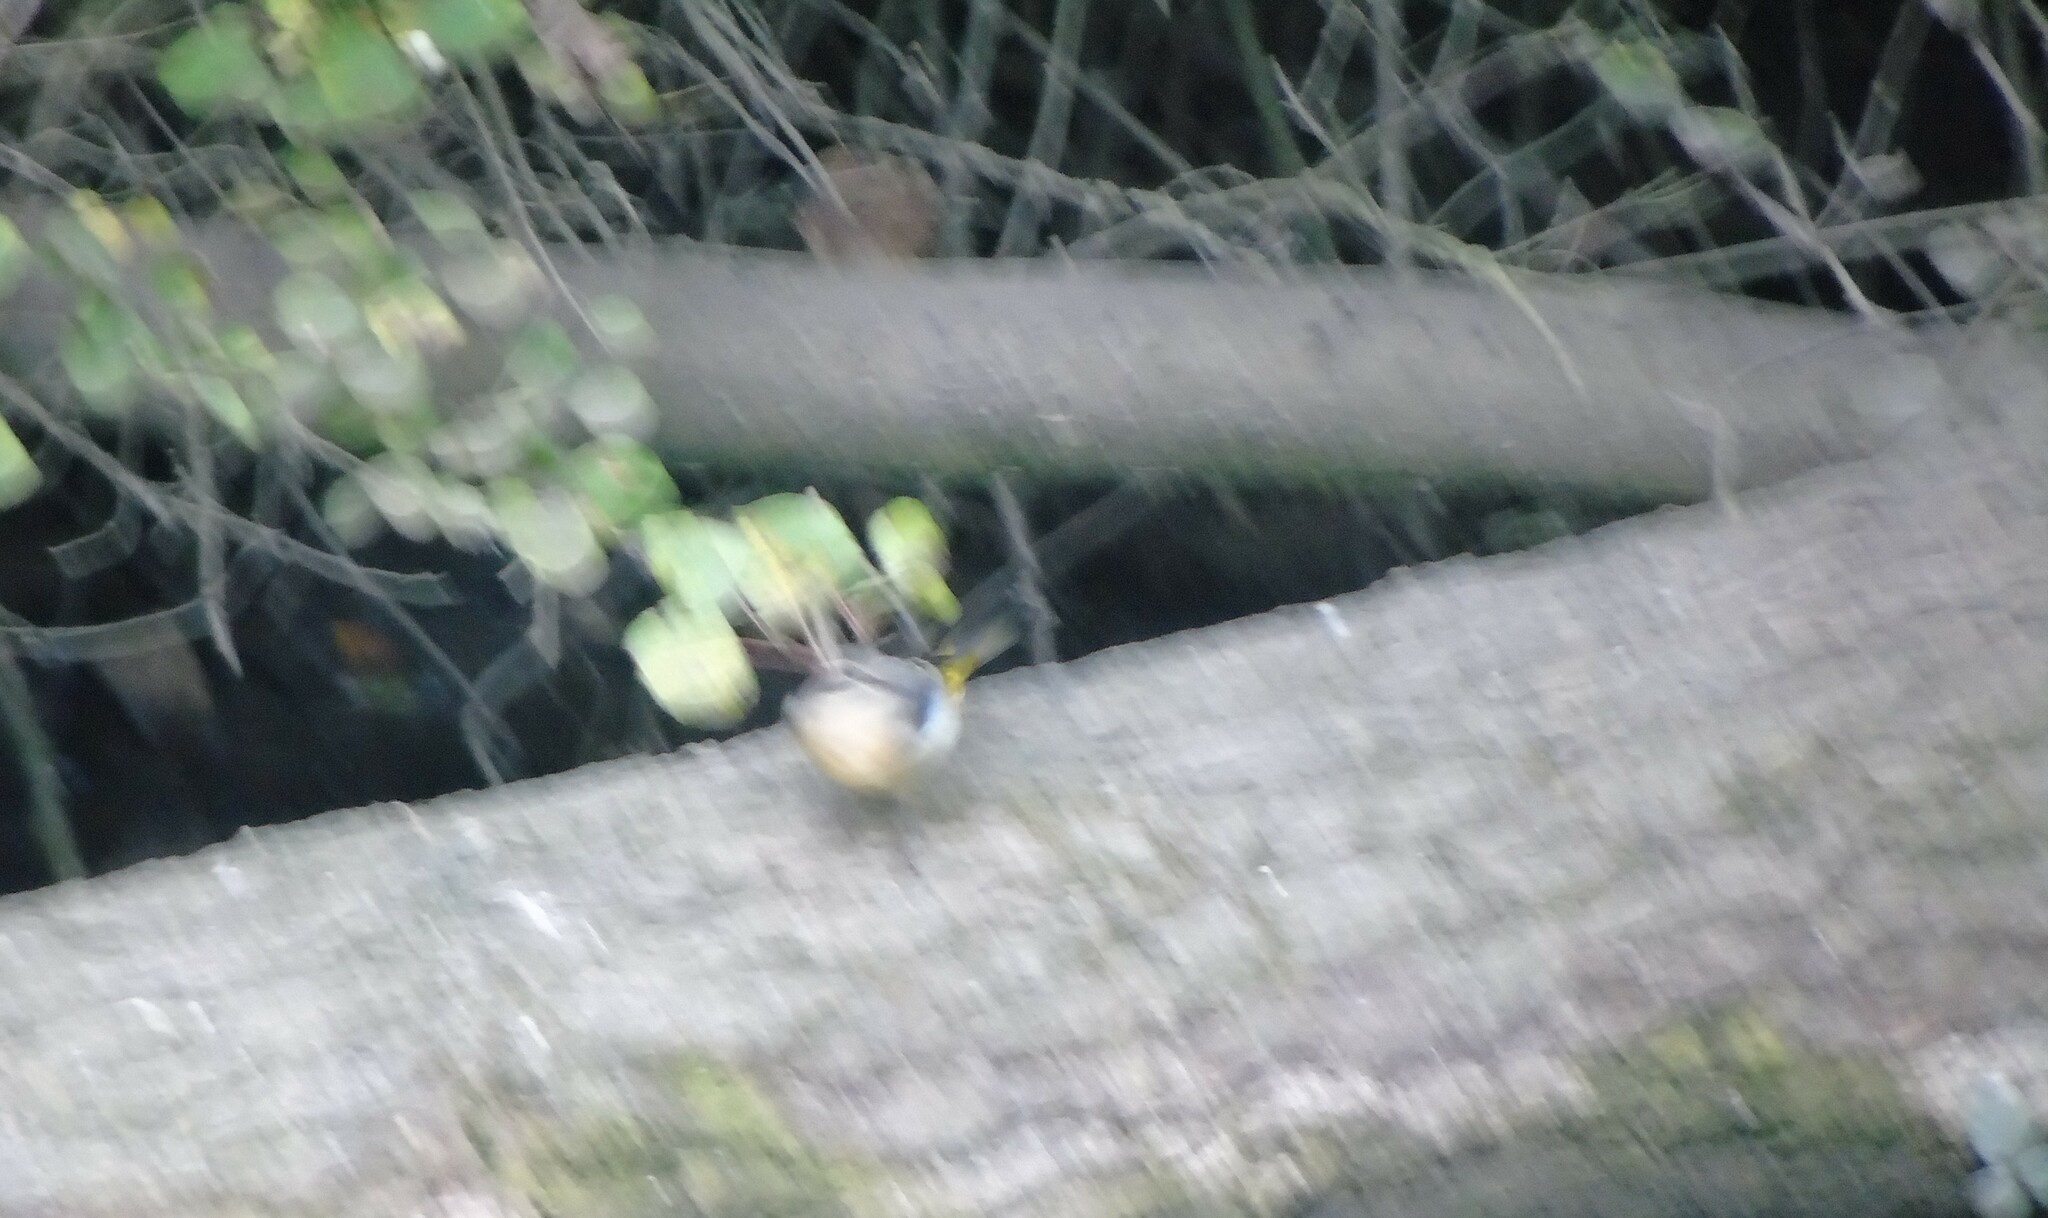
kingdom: Animalia
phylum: Chordata
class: Aves
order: Passeriformes
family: Motacillidae
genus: Motacilla
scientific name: Motacilla cinerea
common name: Grey wagtail
